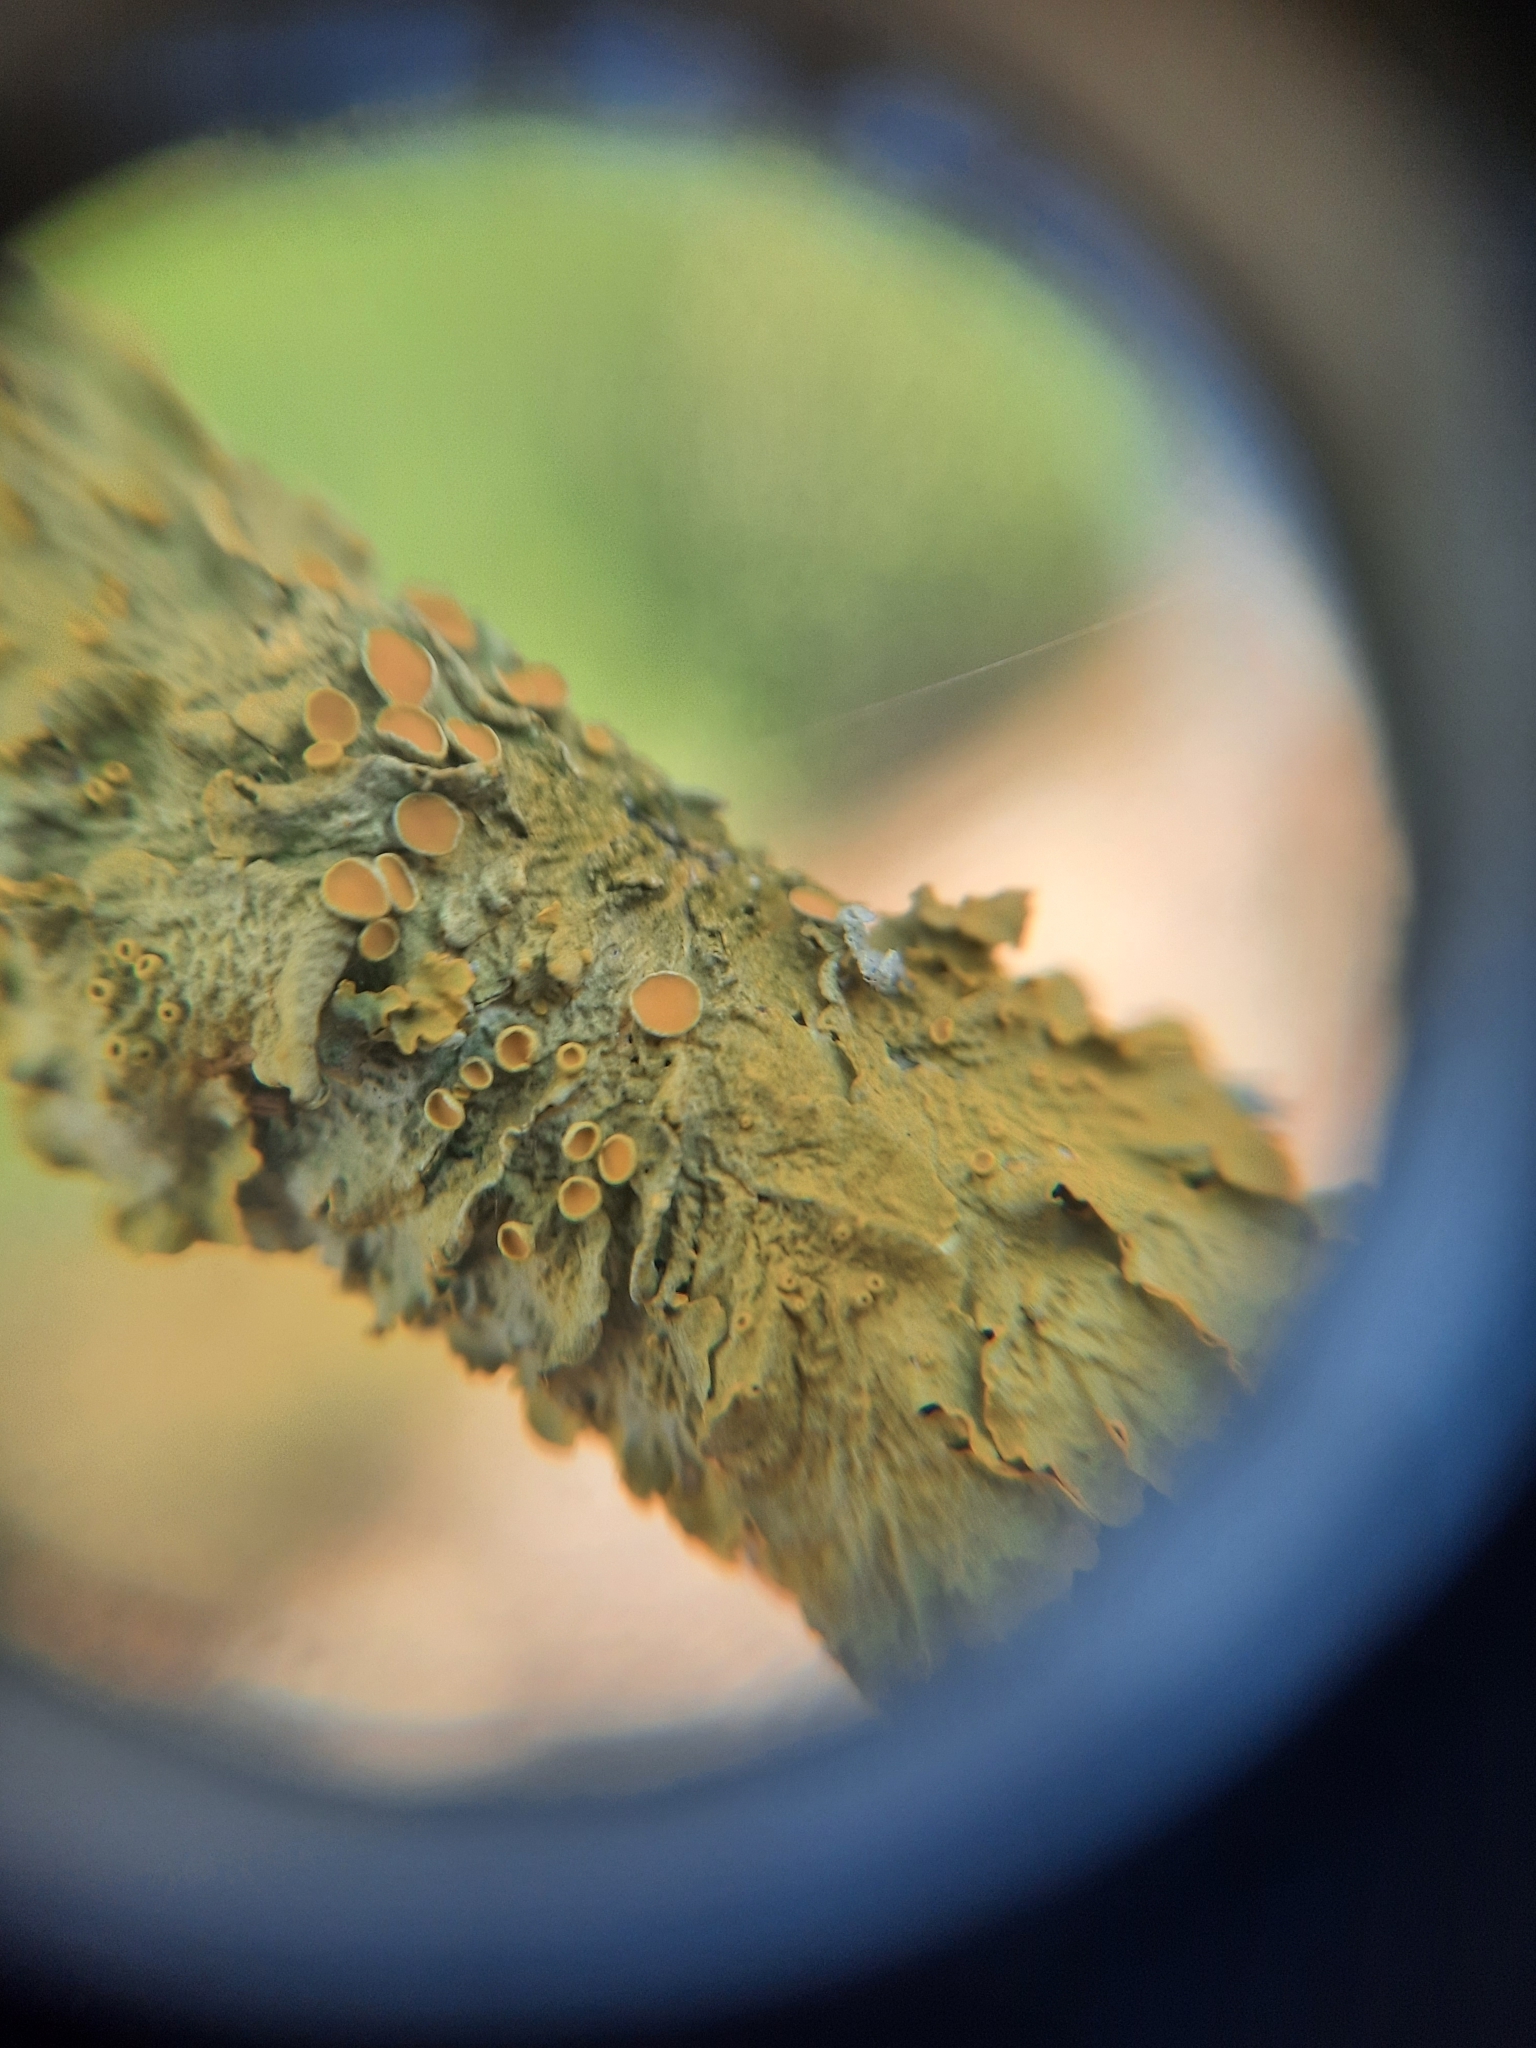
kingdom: Fungi
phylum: Ascomycota
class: Lecanoromycetes
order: Teloschistales
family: Teloschistaceae
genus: Xanthoria
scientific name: Xanthoria parietina
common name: Common orange lichen
